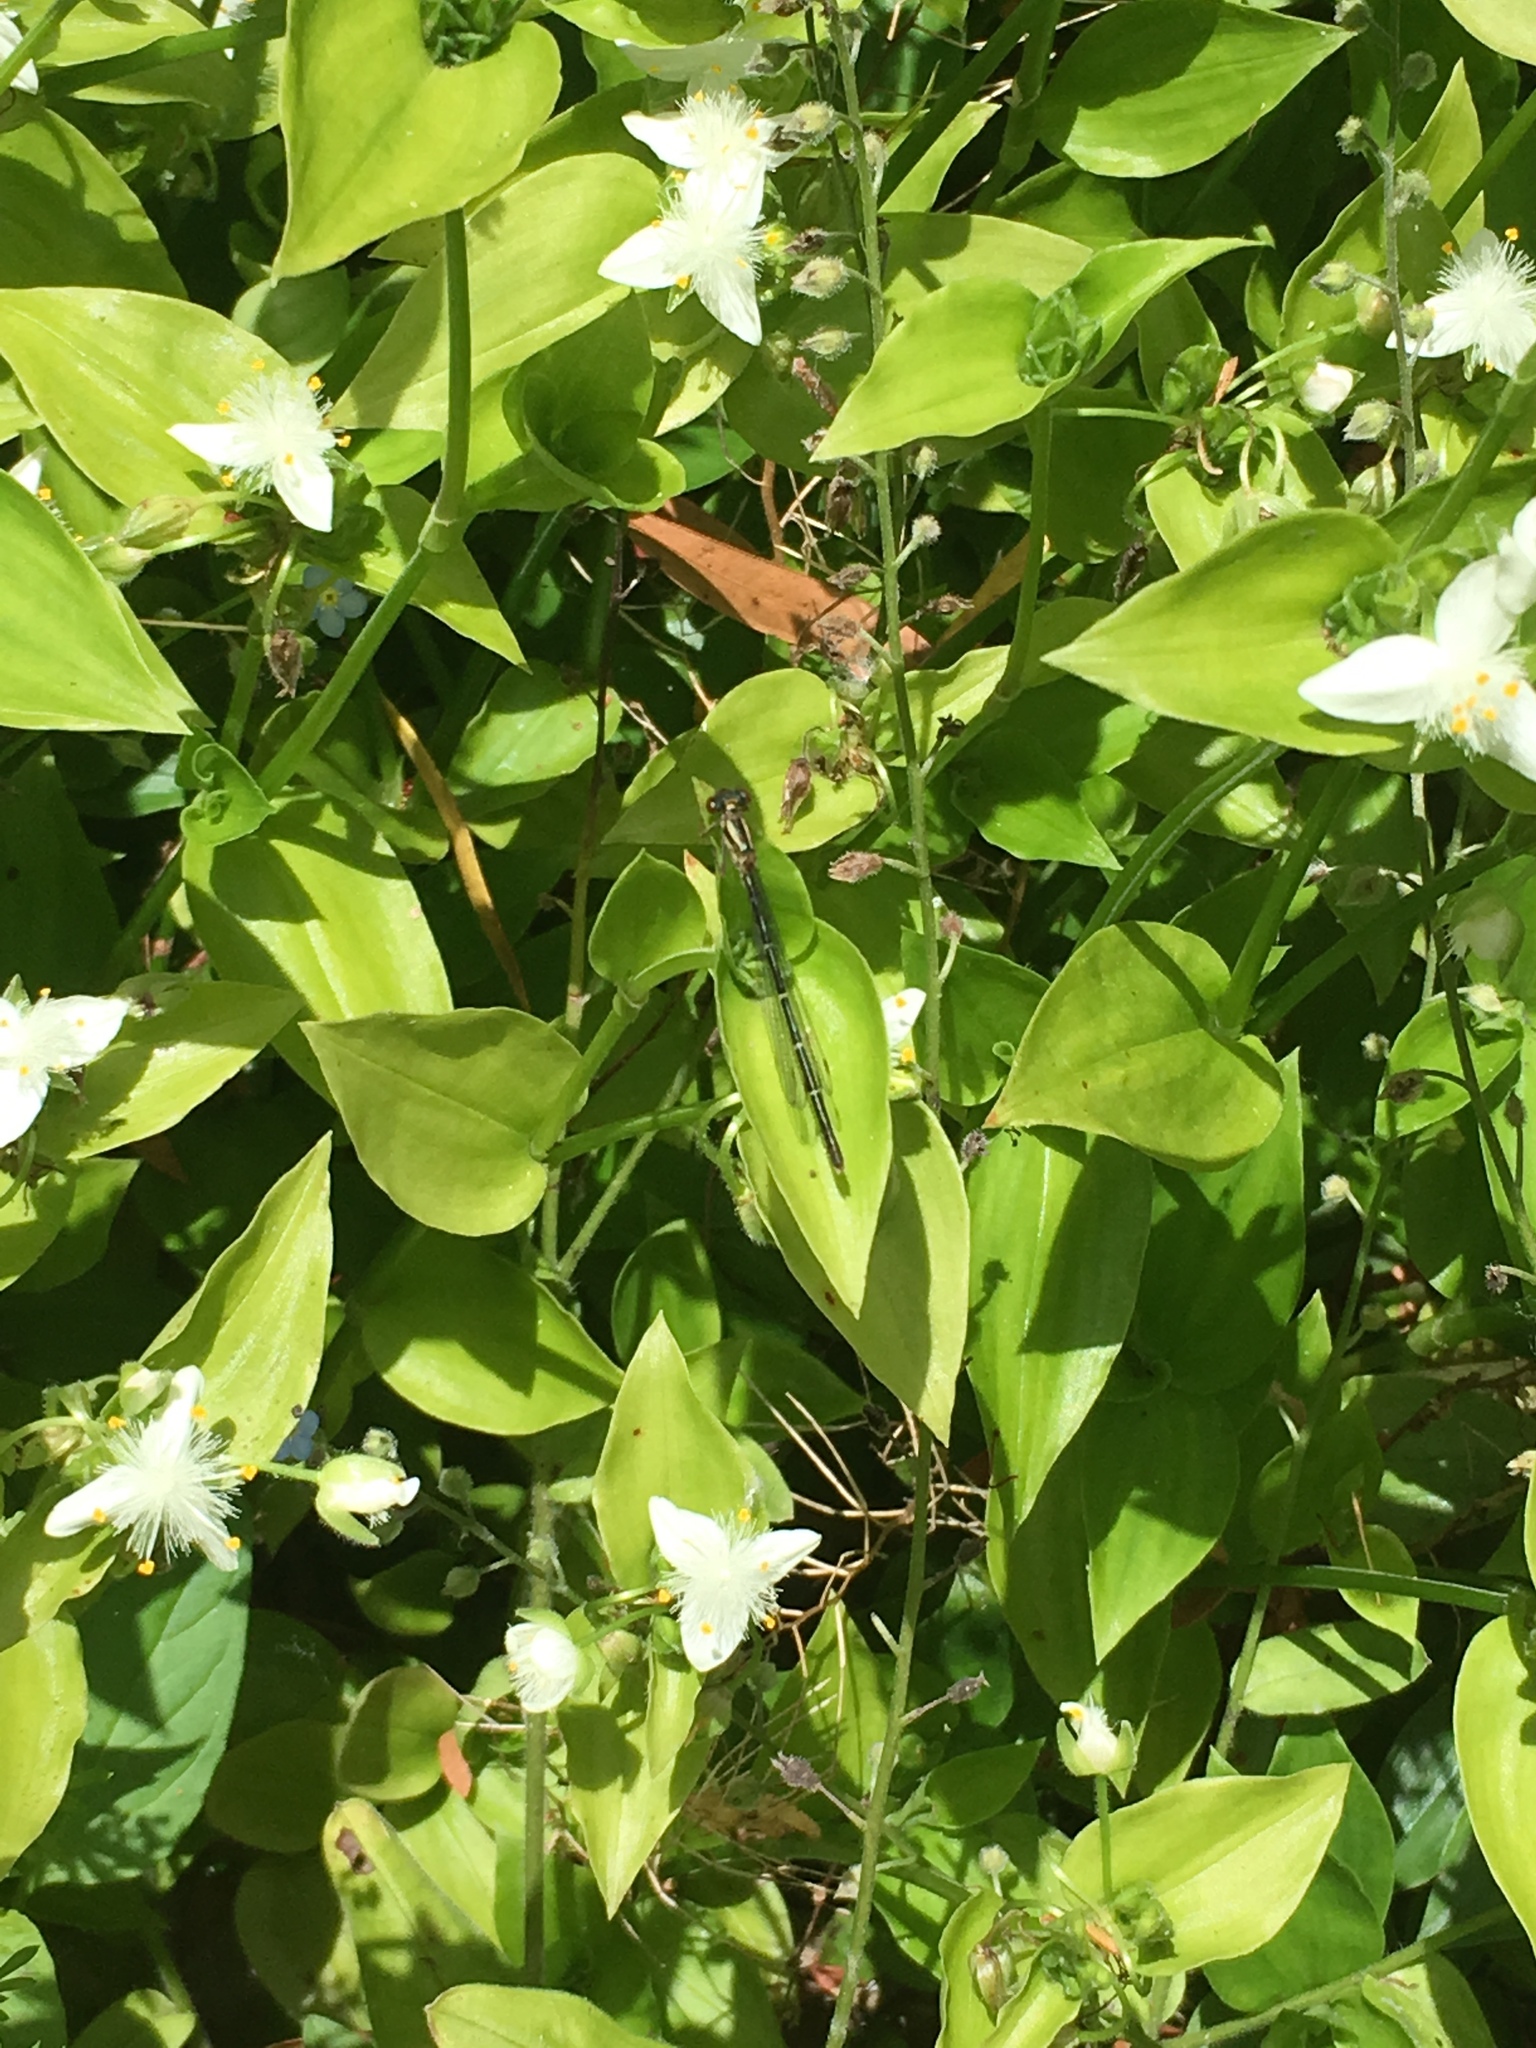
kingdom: Animalia
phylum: Arthropoda
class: Insecta
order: Odonata
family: Coenagrionidae
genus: Xanthocnemis
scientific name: Xanthocnemis zealandica
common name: Common redcoat damselfly
